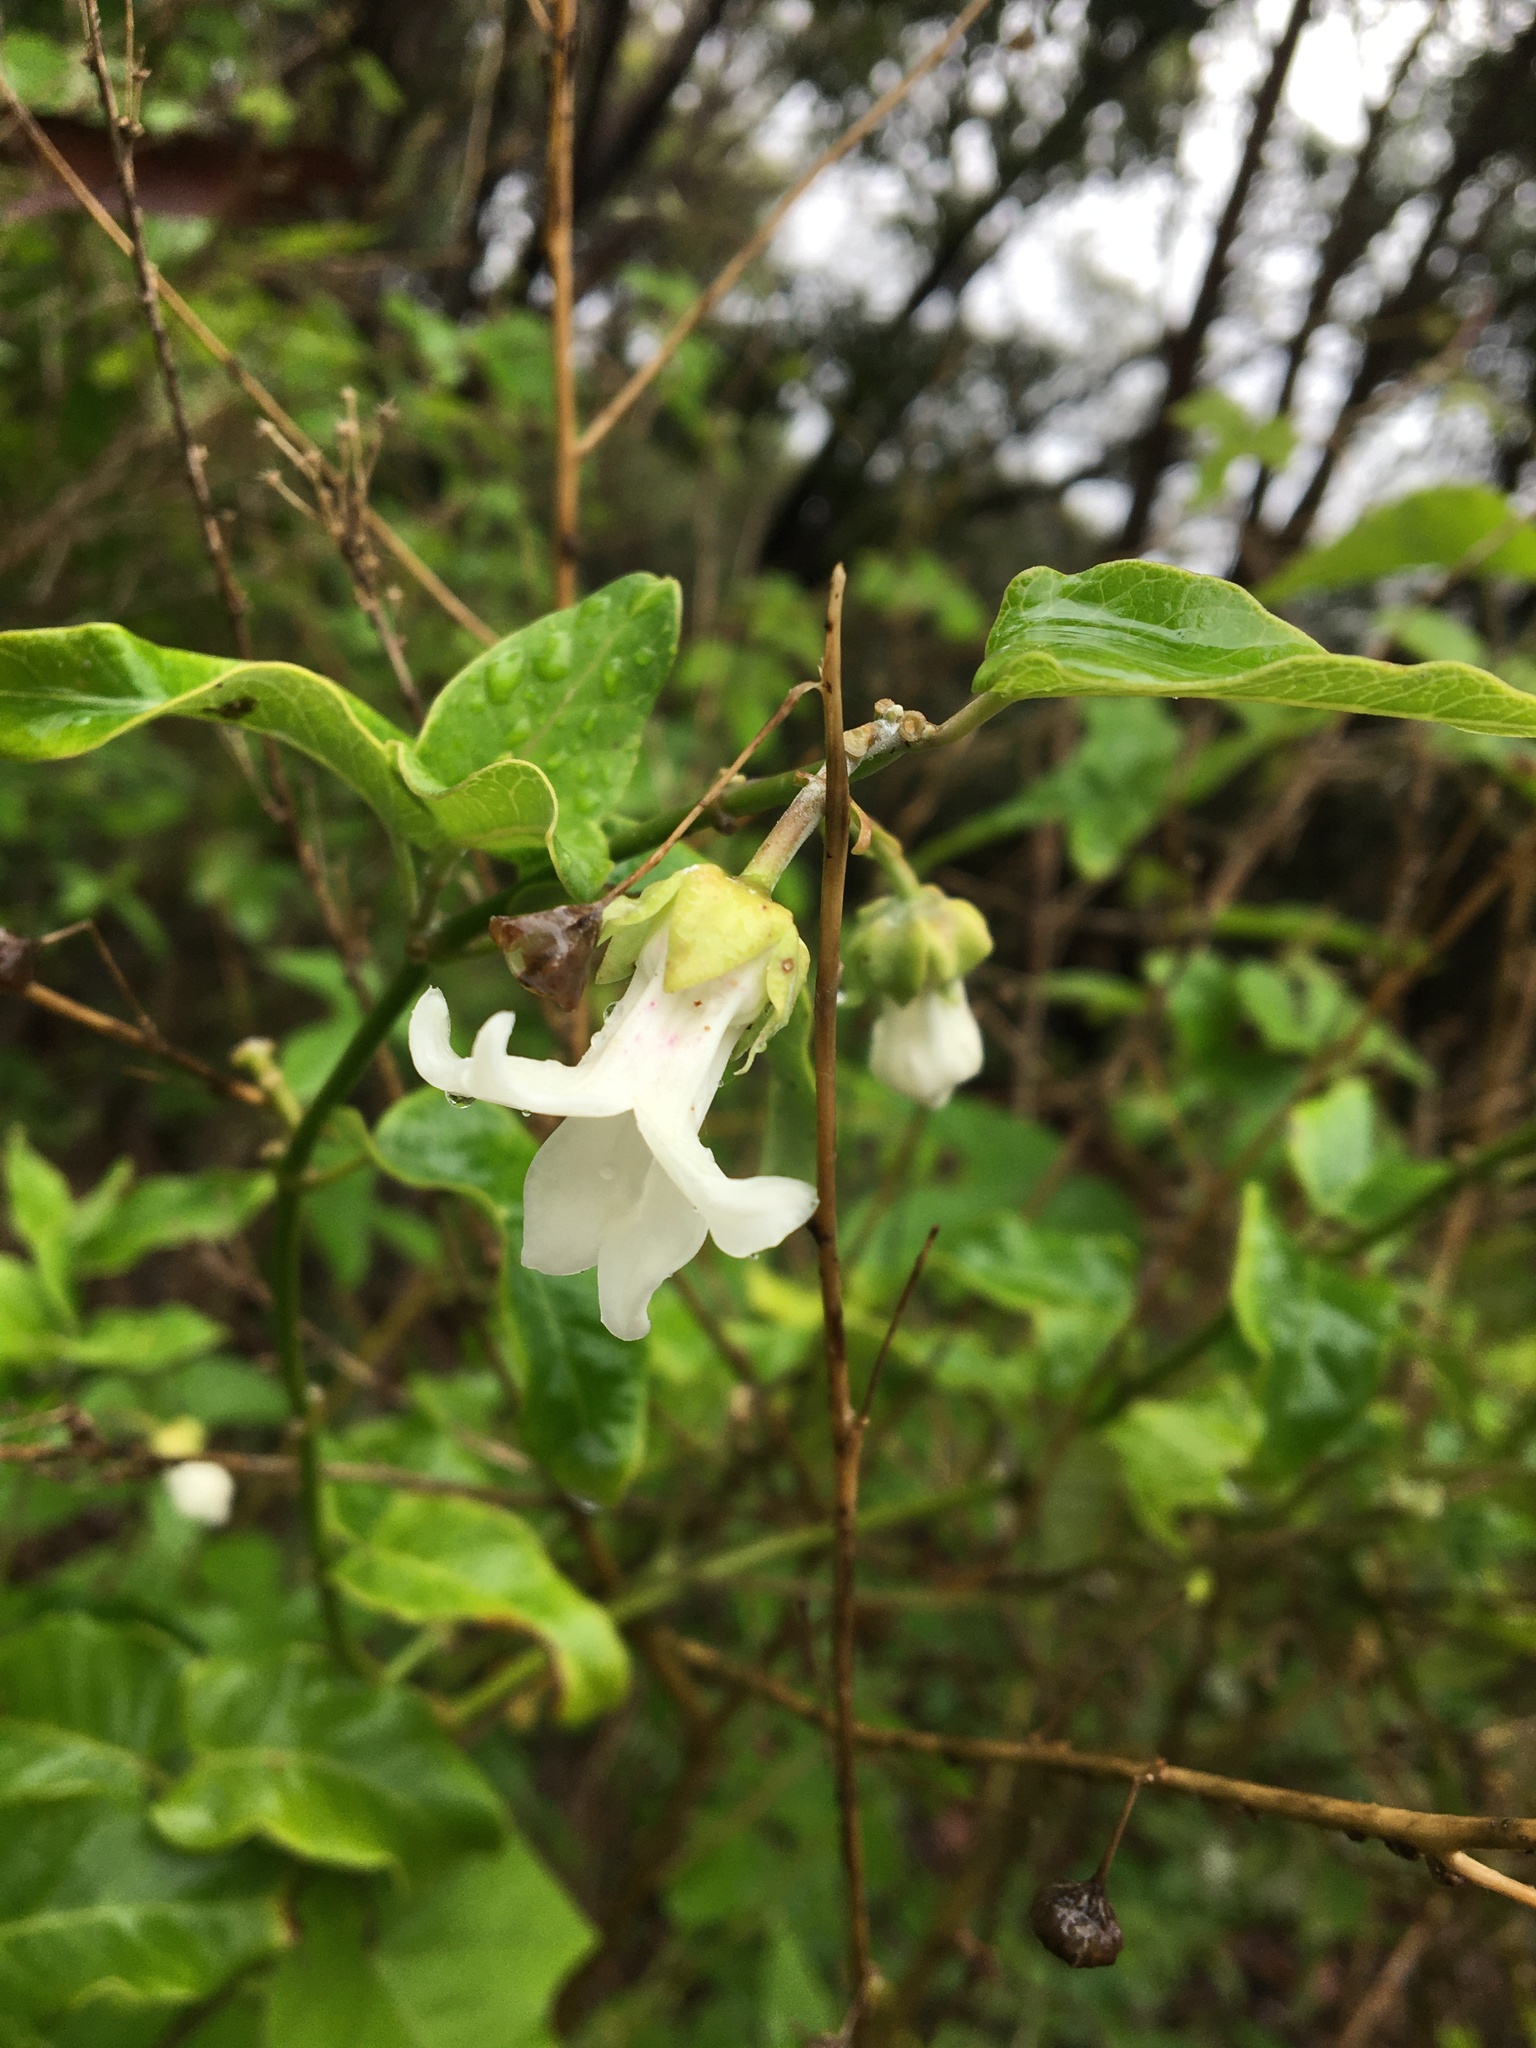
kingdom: Plantae
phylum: Tracheophyta
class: Magnoliopsida
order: Gentianales
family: Apocynaceae
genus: Araujia
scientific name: Araujia sericifera
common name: White bladderflower
